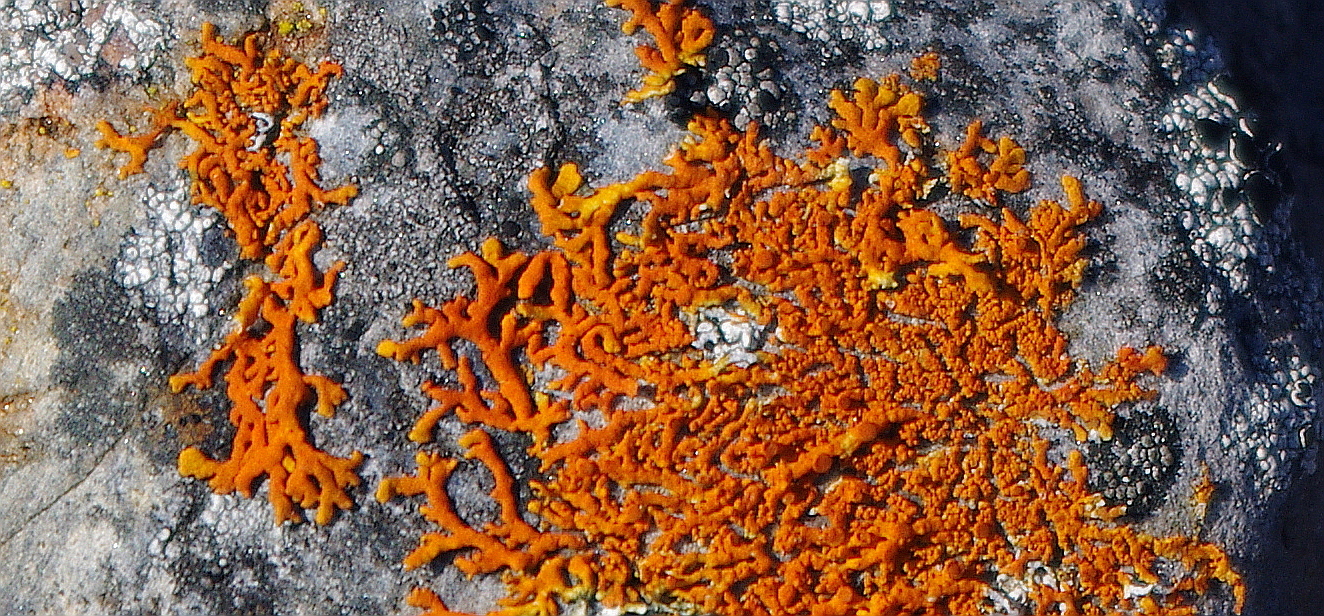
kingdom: Fungi
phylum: Ascomycota
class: Lecanoromycetes
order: Teloschistales
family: Teloschistaceae
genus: Xanthoria
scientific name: Xanthoria elegans
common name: Elegant sunburst lichen
